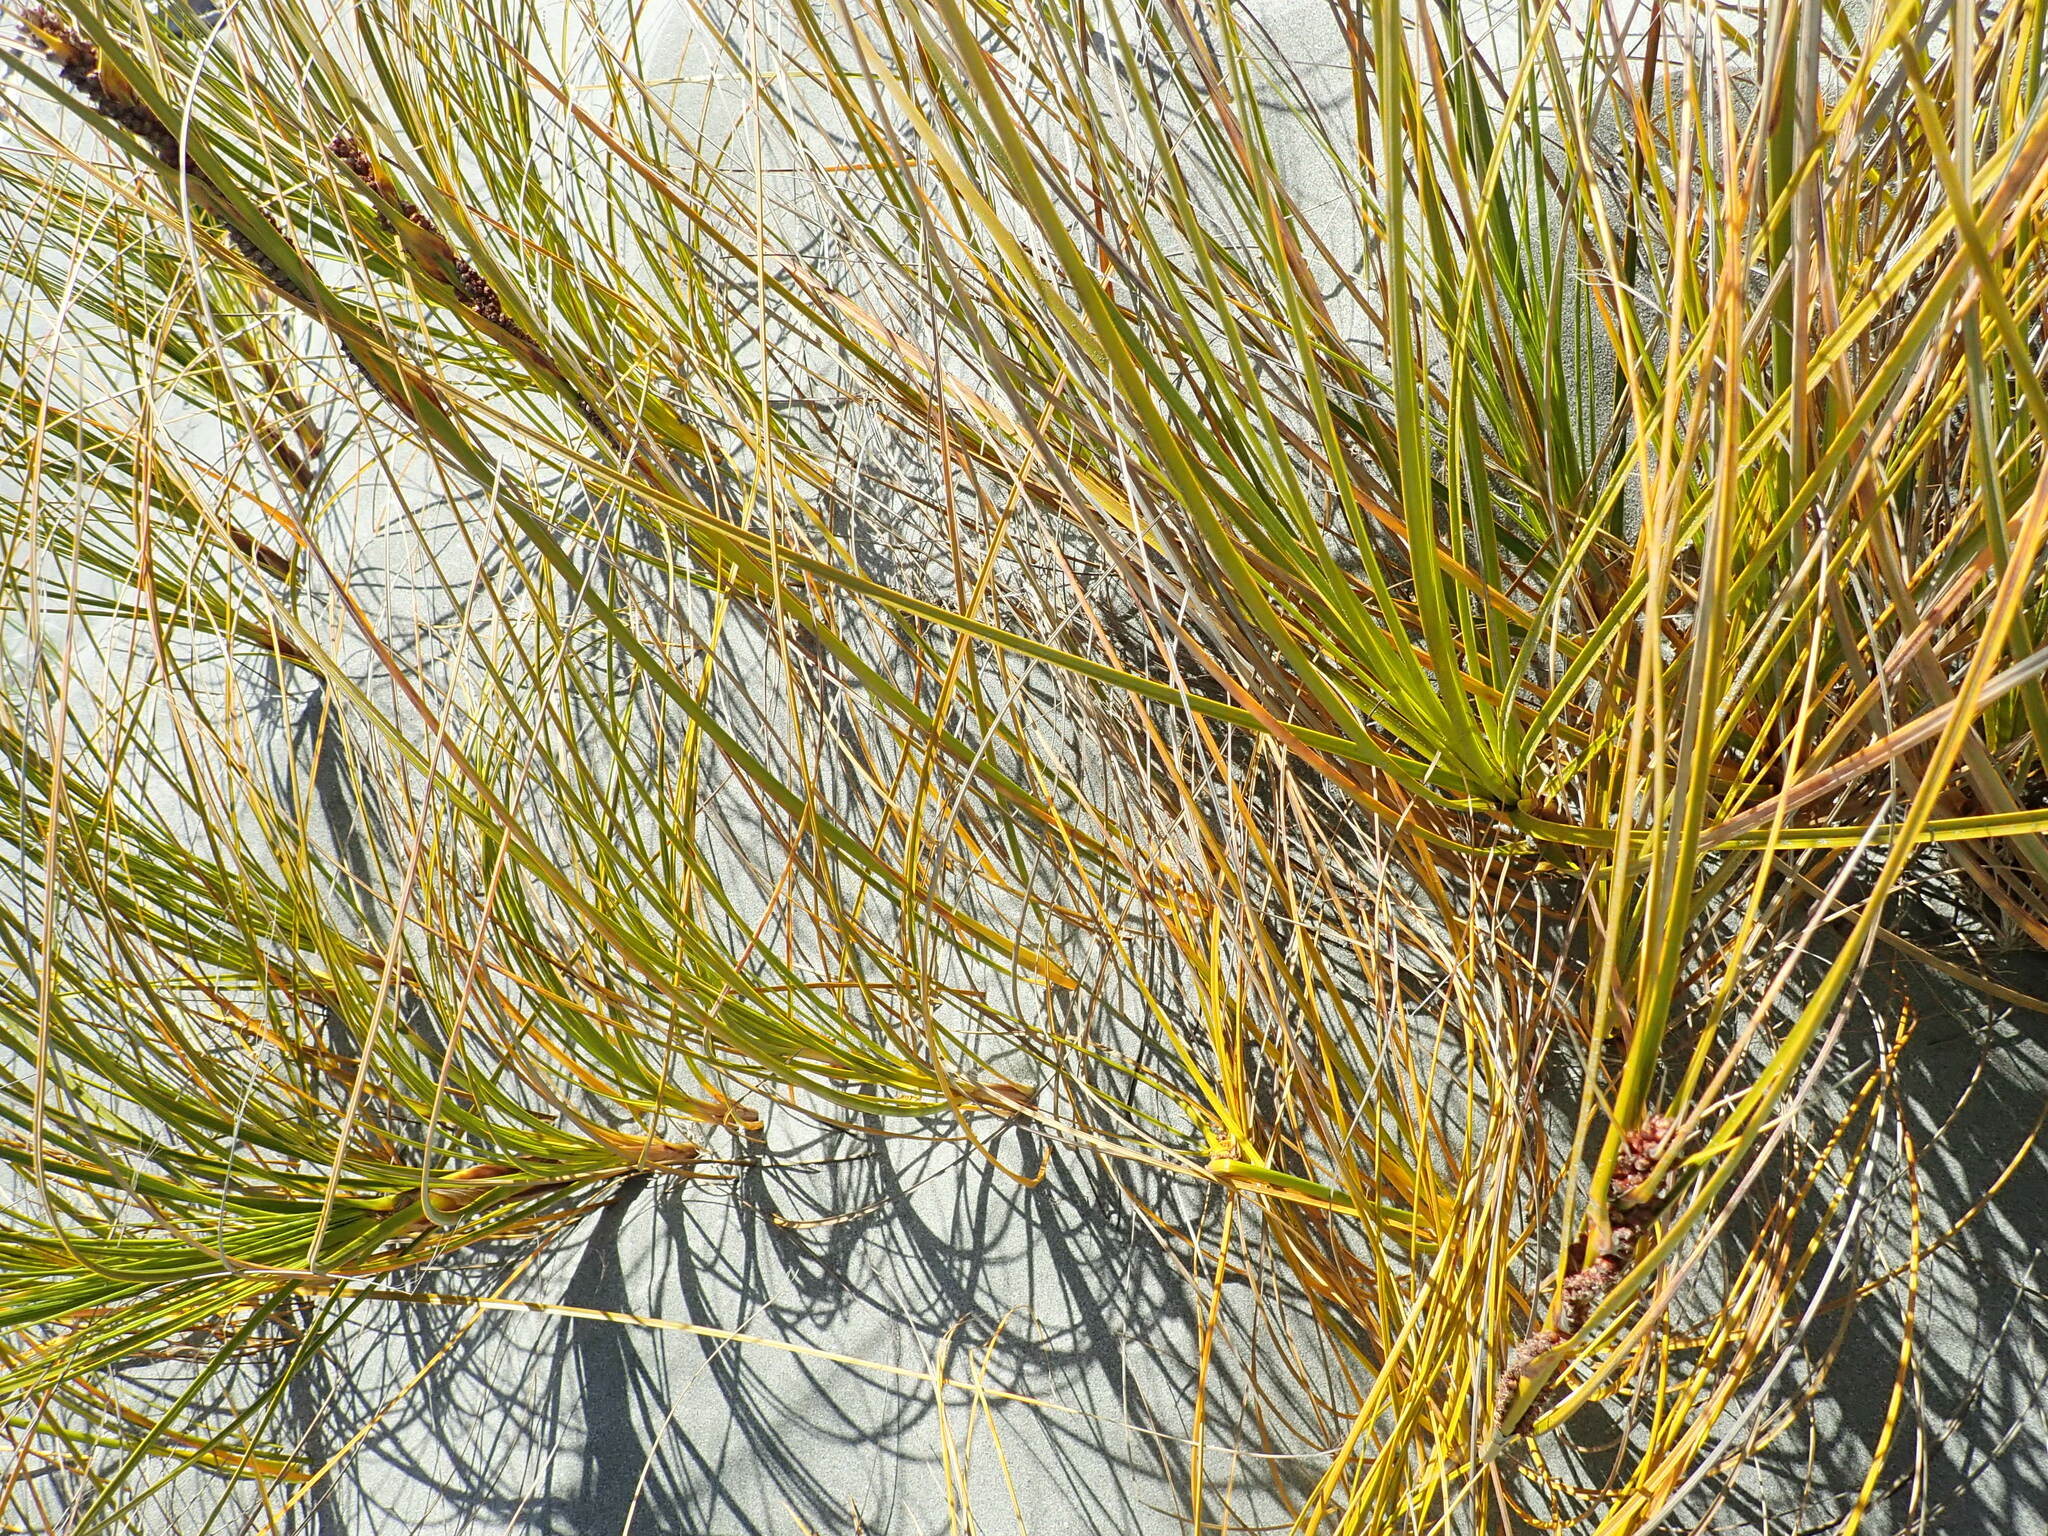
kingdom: Plantae
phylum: Tracheophyta
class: Liliopsida
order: Poales
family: Cyperaceae
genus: Ficinia
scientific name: Ficinia spiralis
